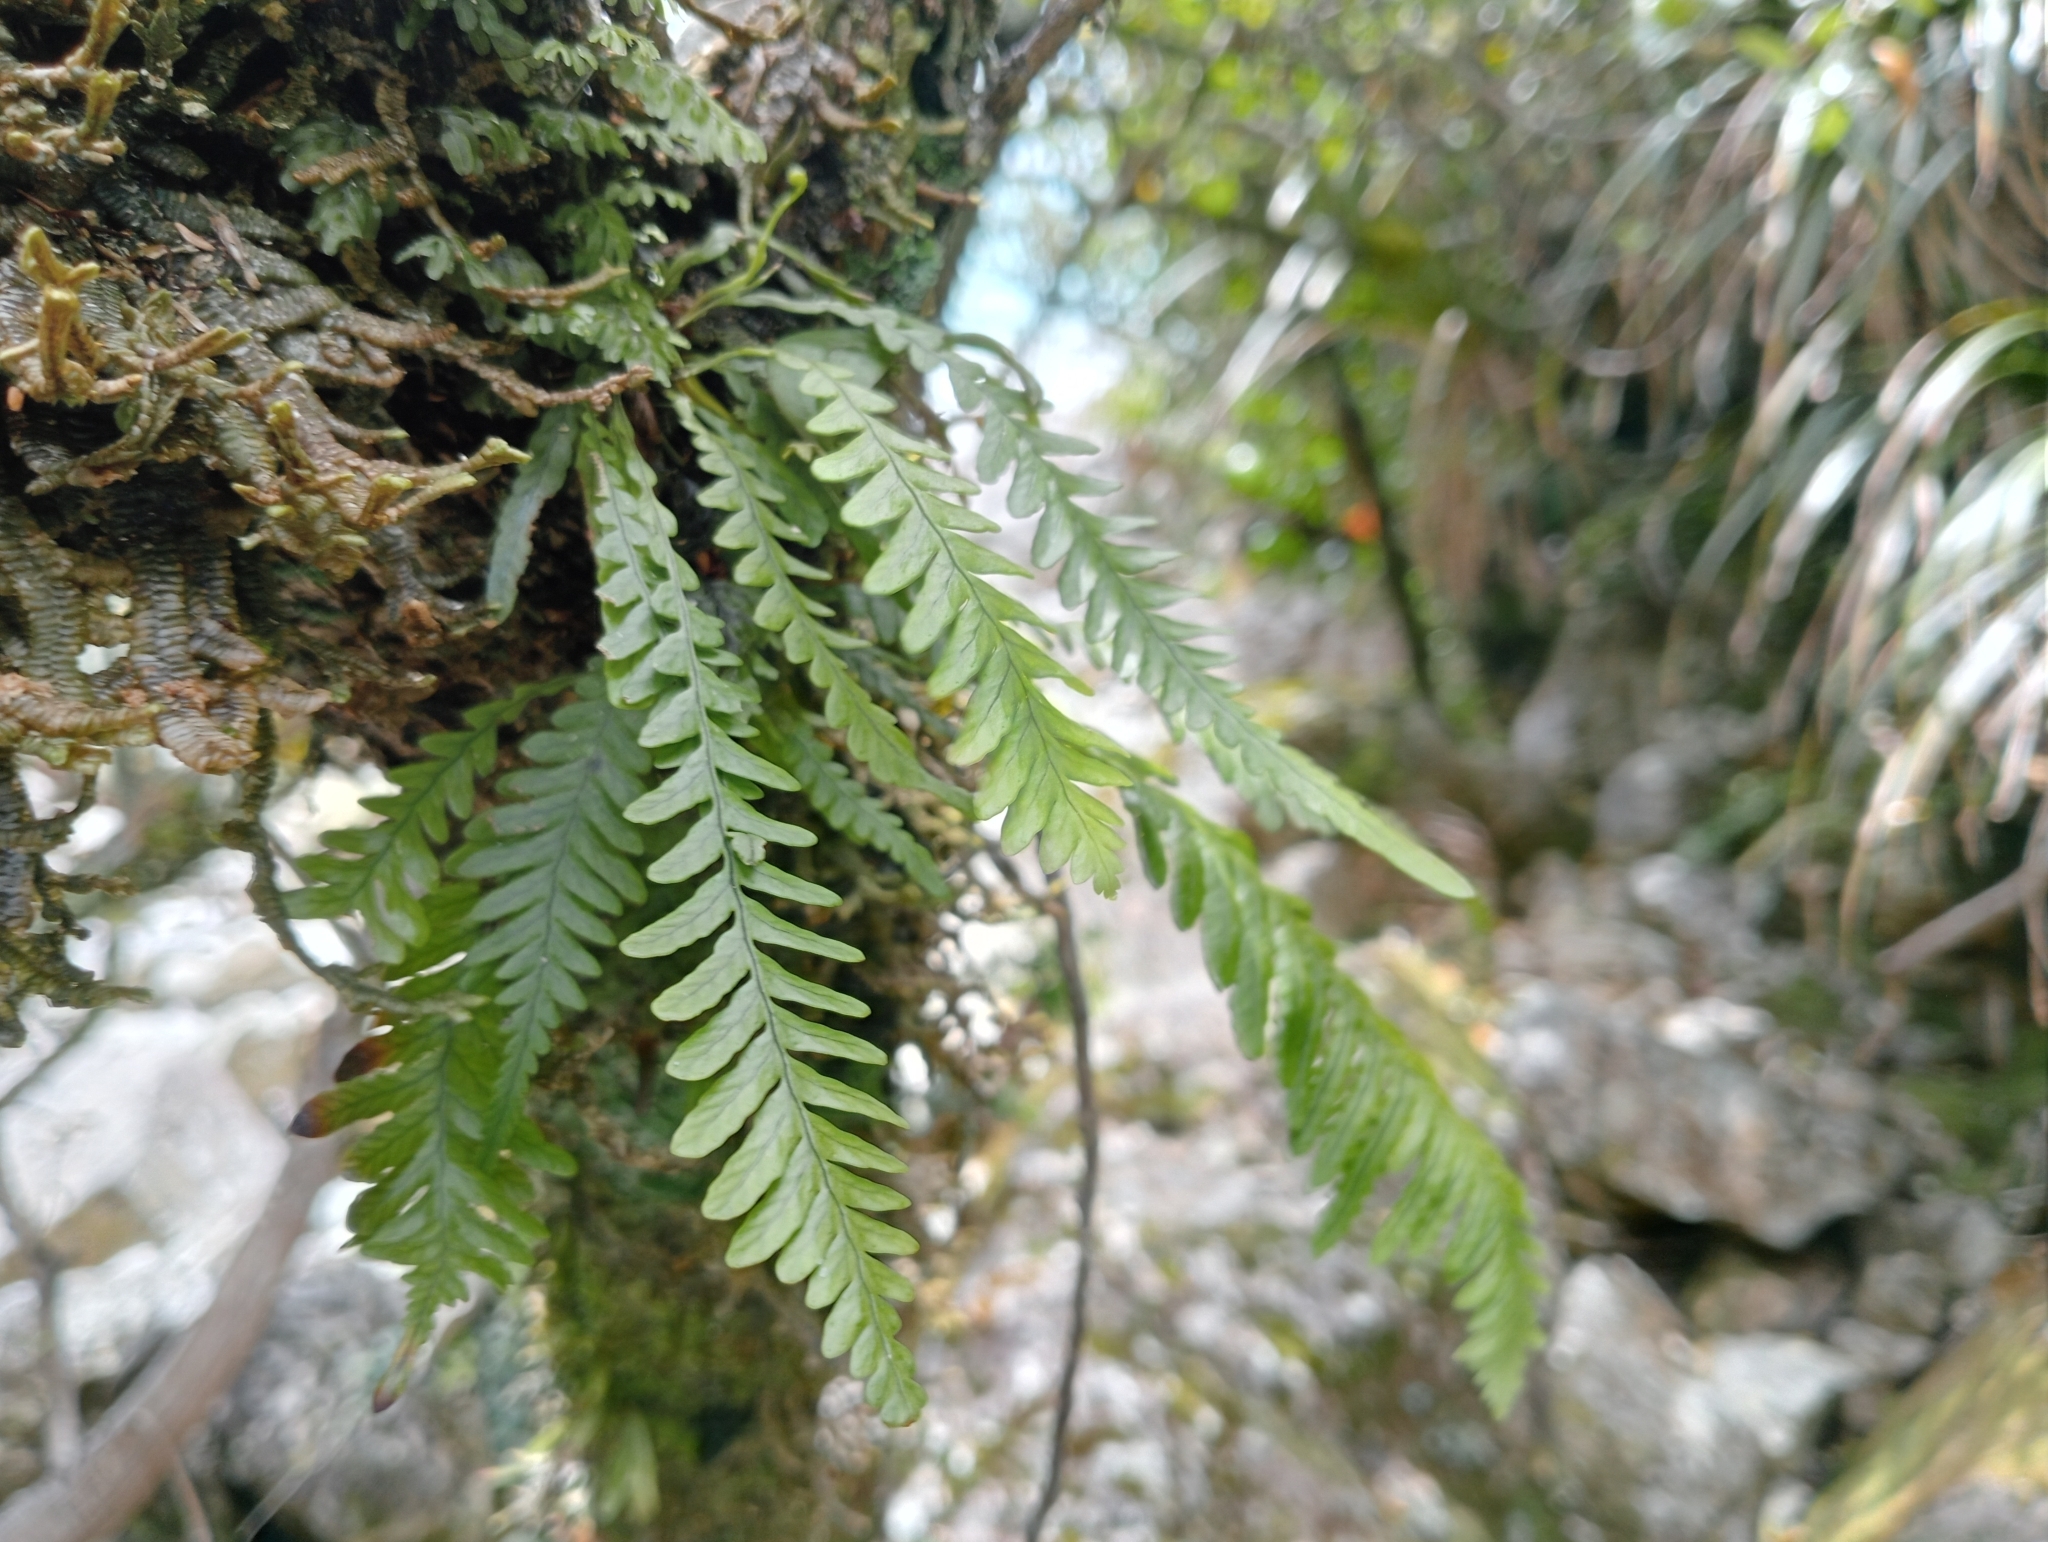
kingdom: Plantae
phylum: Tracheophyta
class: Polypodiopsida
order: Polypodiales
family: Polypodiaceae
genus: Notogrammitis
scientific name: Notogrammitis heterophylla
